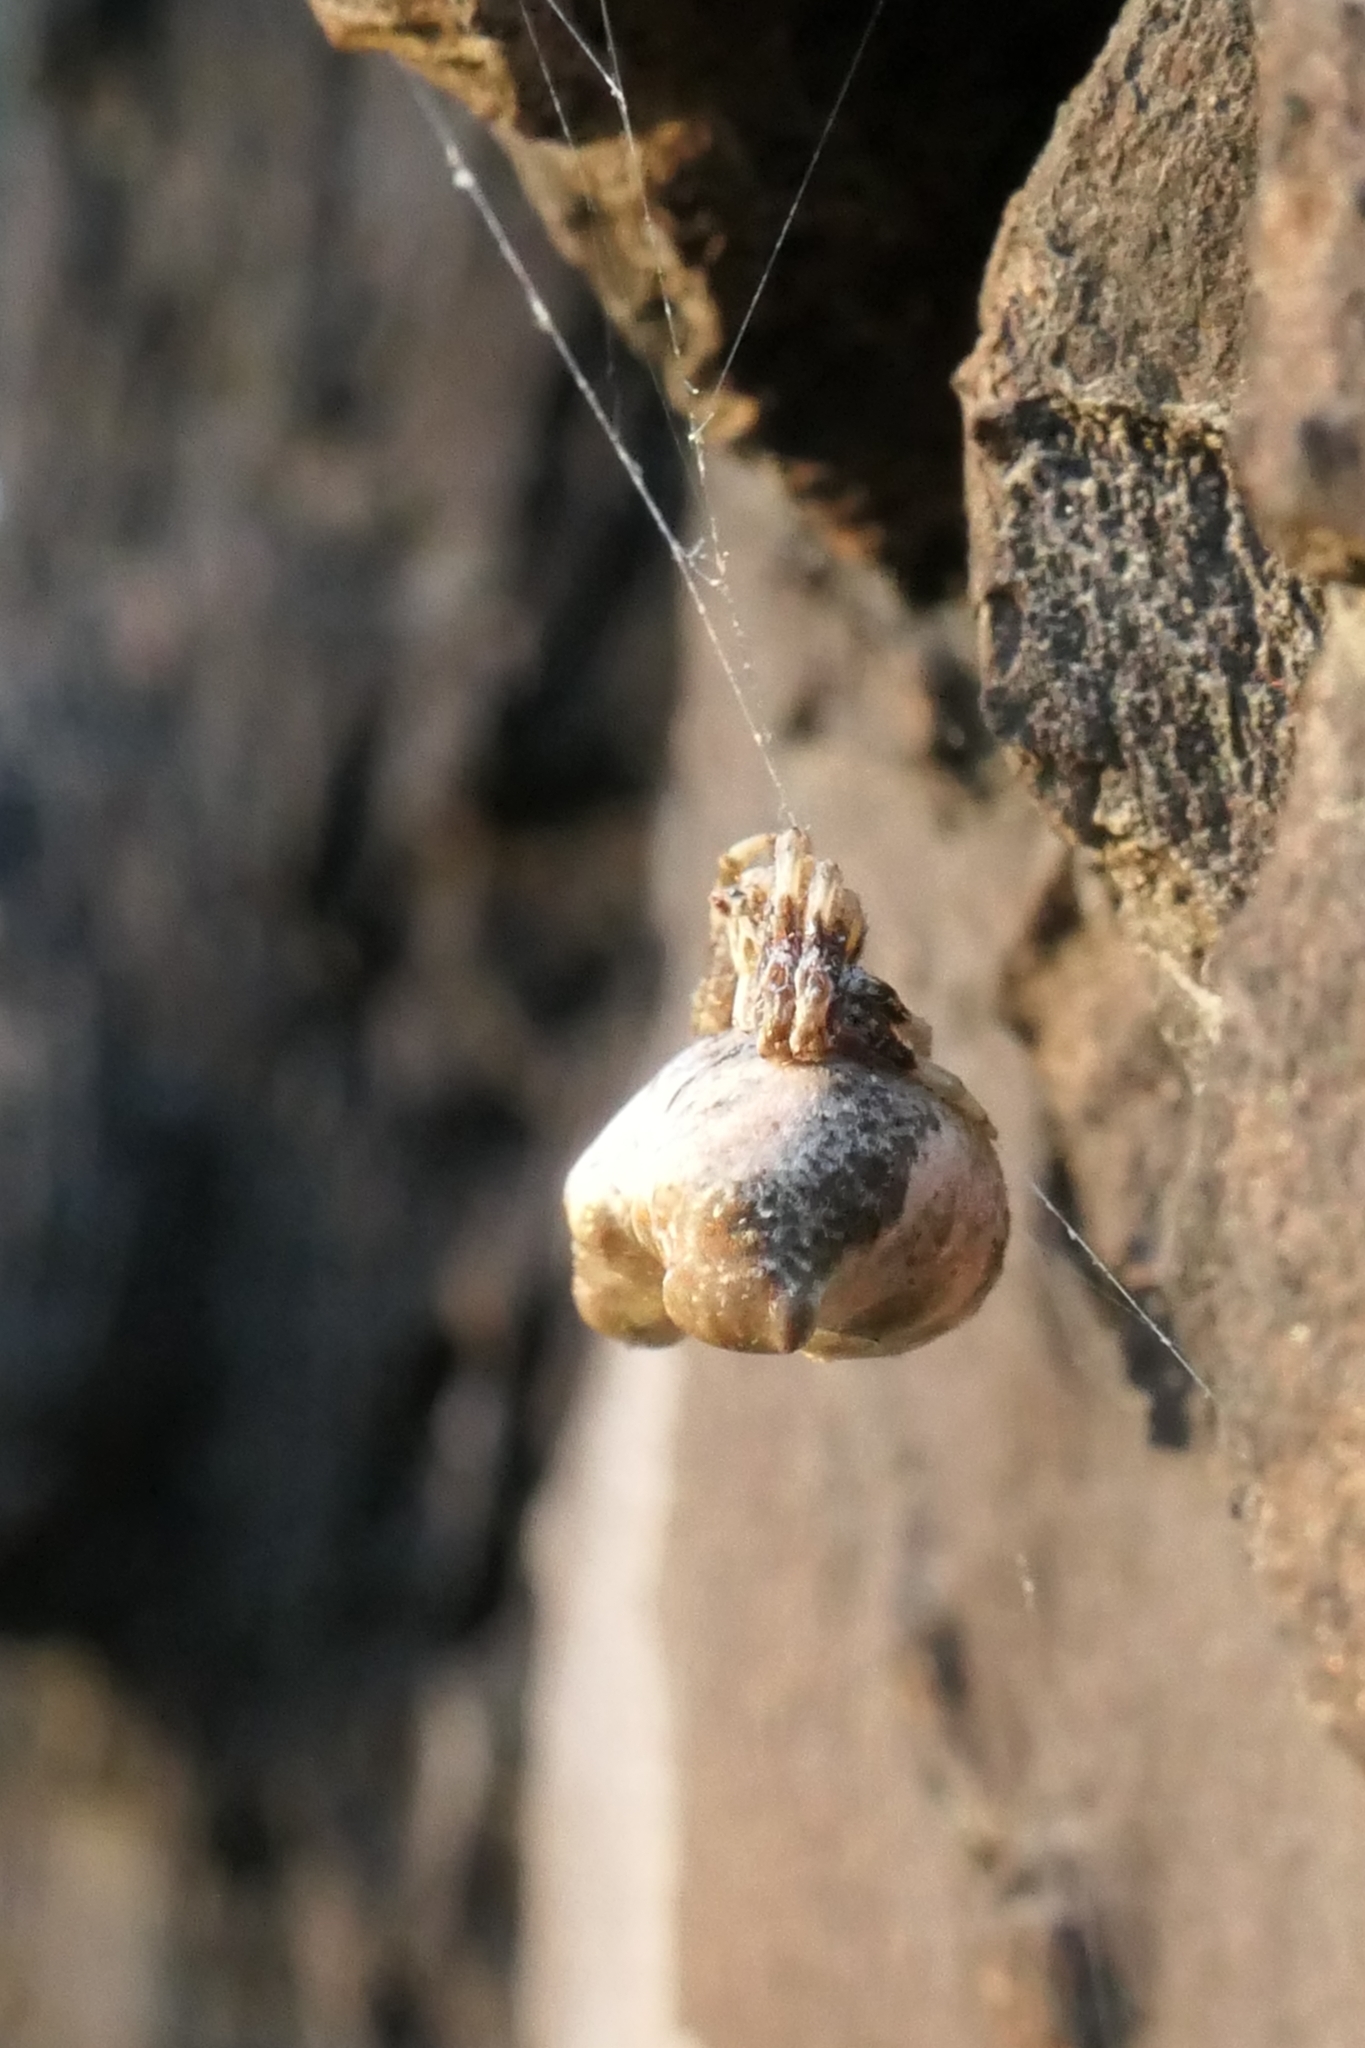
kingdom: Animalia
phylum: Arthropoda
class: Arachnida
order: Araneae
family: Araneidae
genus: Celaenia
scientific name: Celaenia olivacea
